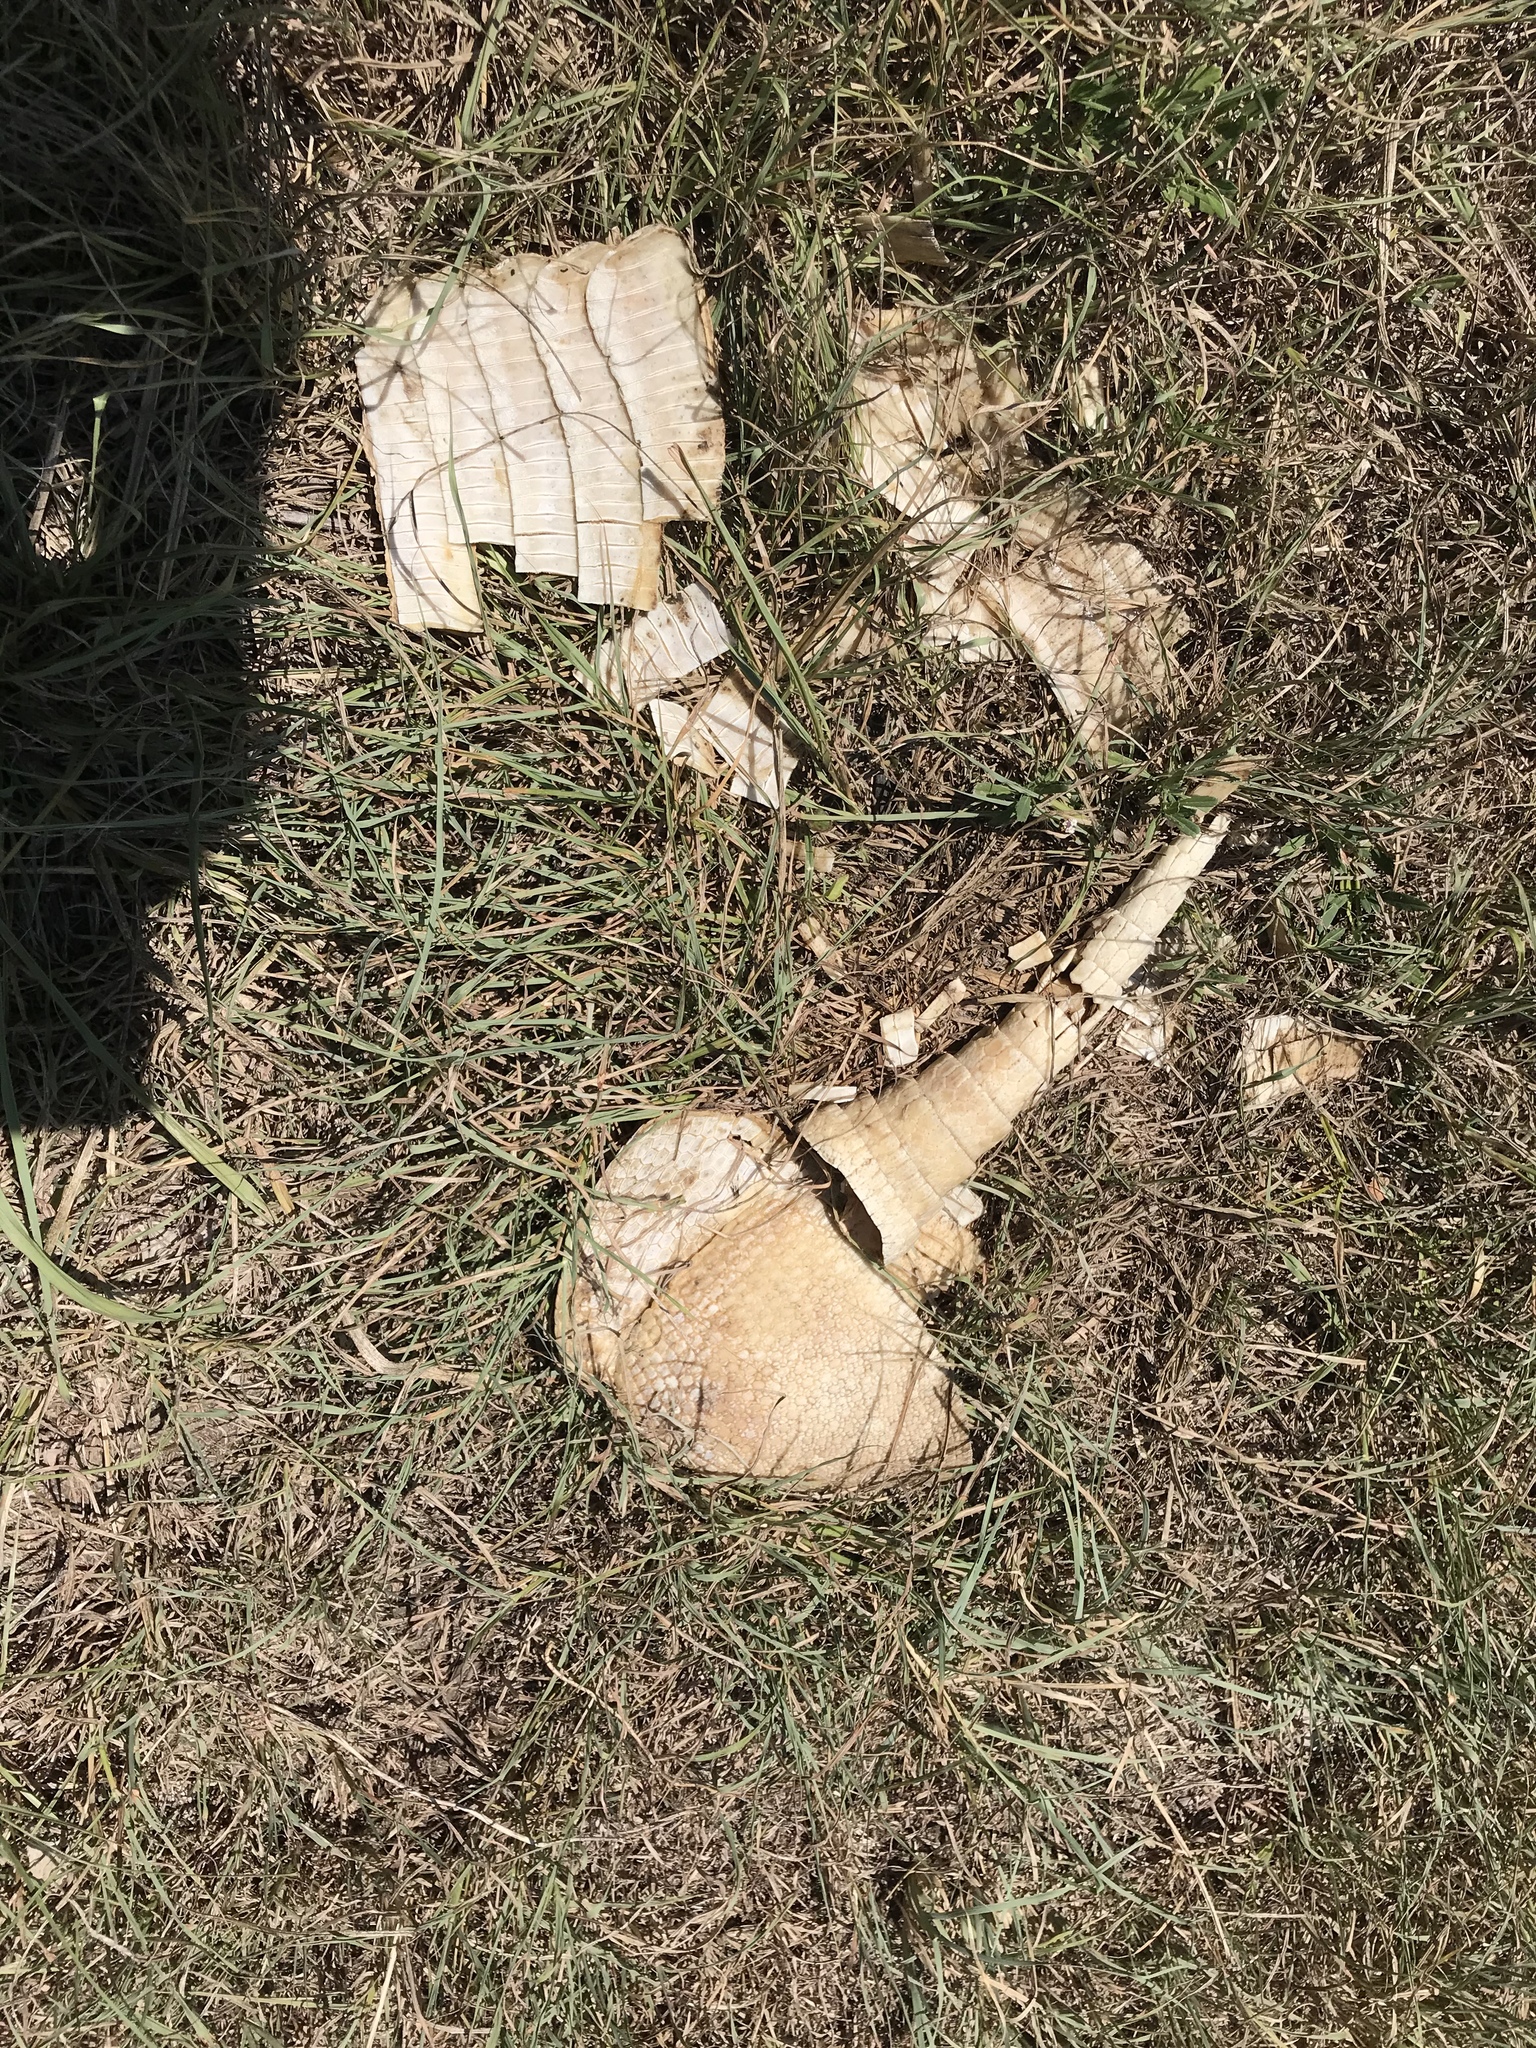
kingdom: Animalia
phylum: Chordata
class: Mammalia
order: Cingulata
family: Dasypodidae
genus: Dasypus
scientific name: Dasypus novemcinctus
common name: Nine-banded armadillo
